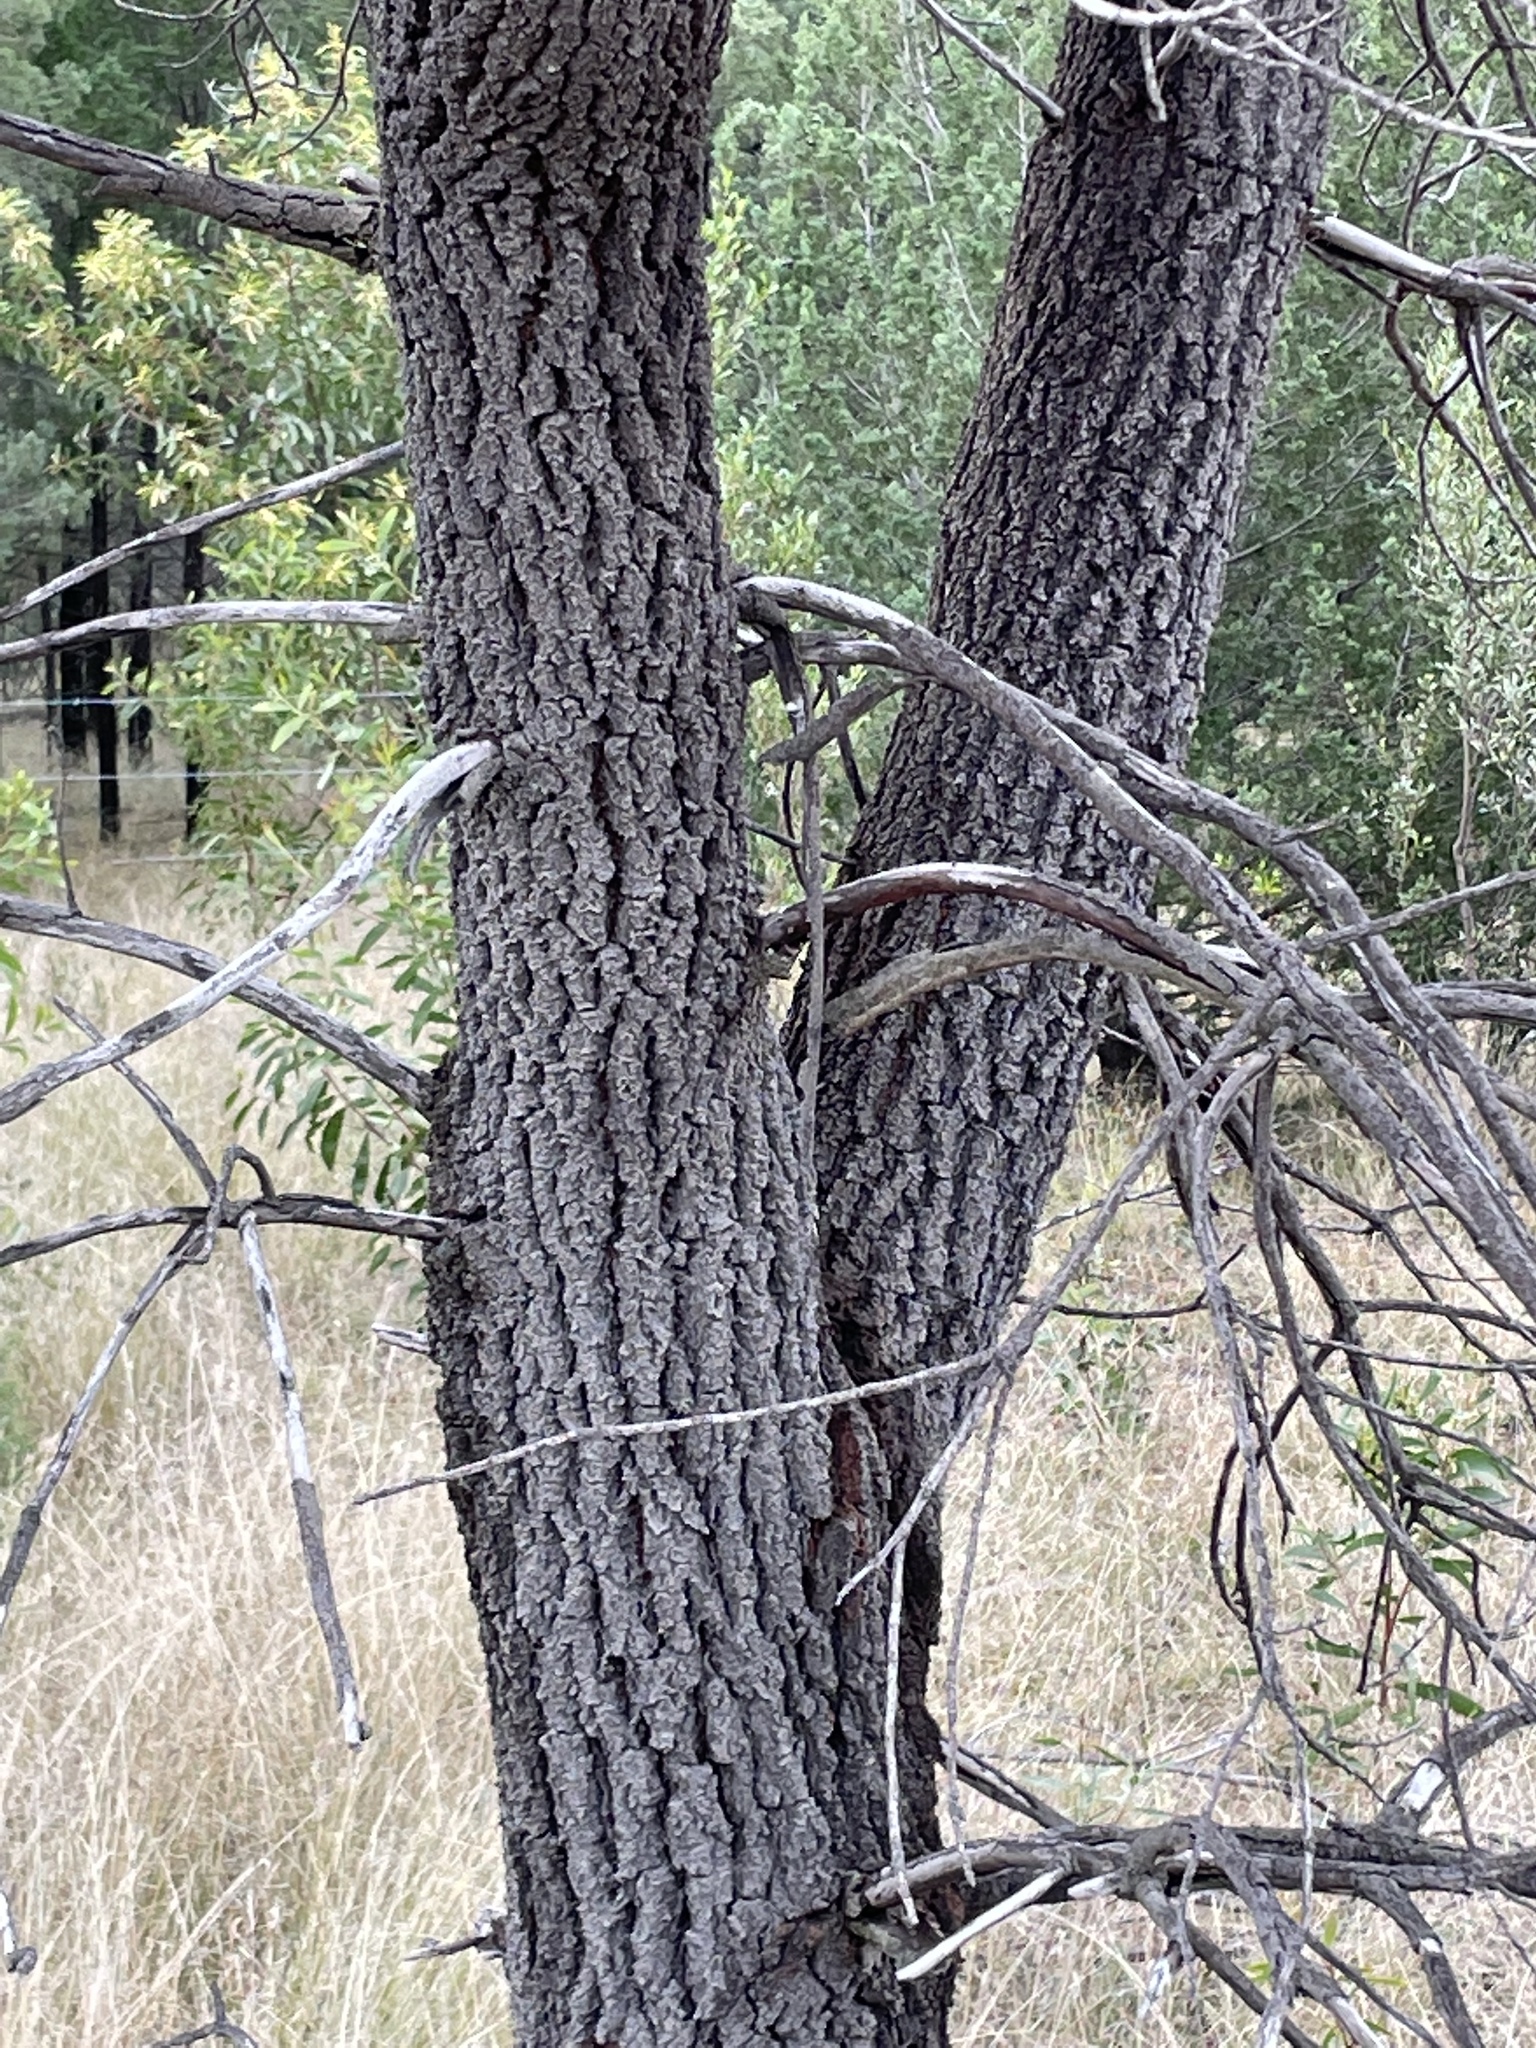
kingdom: Plantae
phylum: Tracheophyta
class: Magnoliopsida
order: Proteales
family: Proteaceae
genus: Grevillea
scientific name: Grevillea striata
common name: Beefwood
